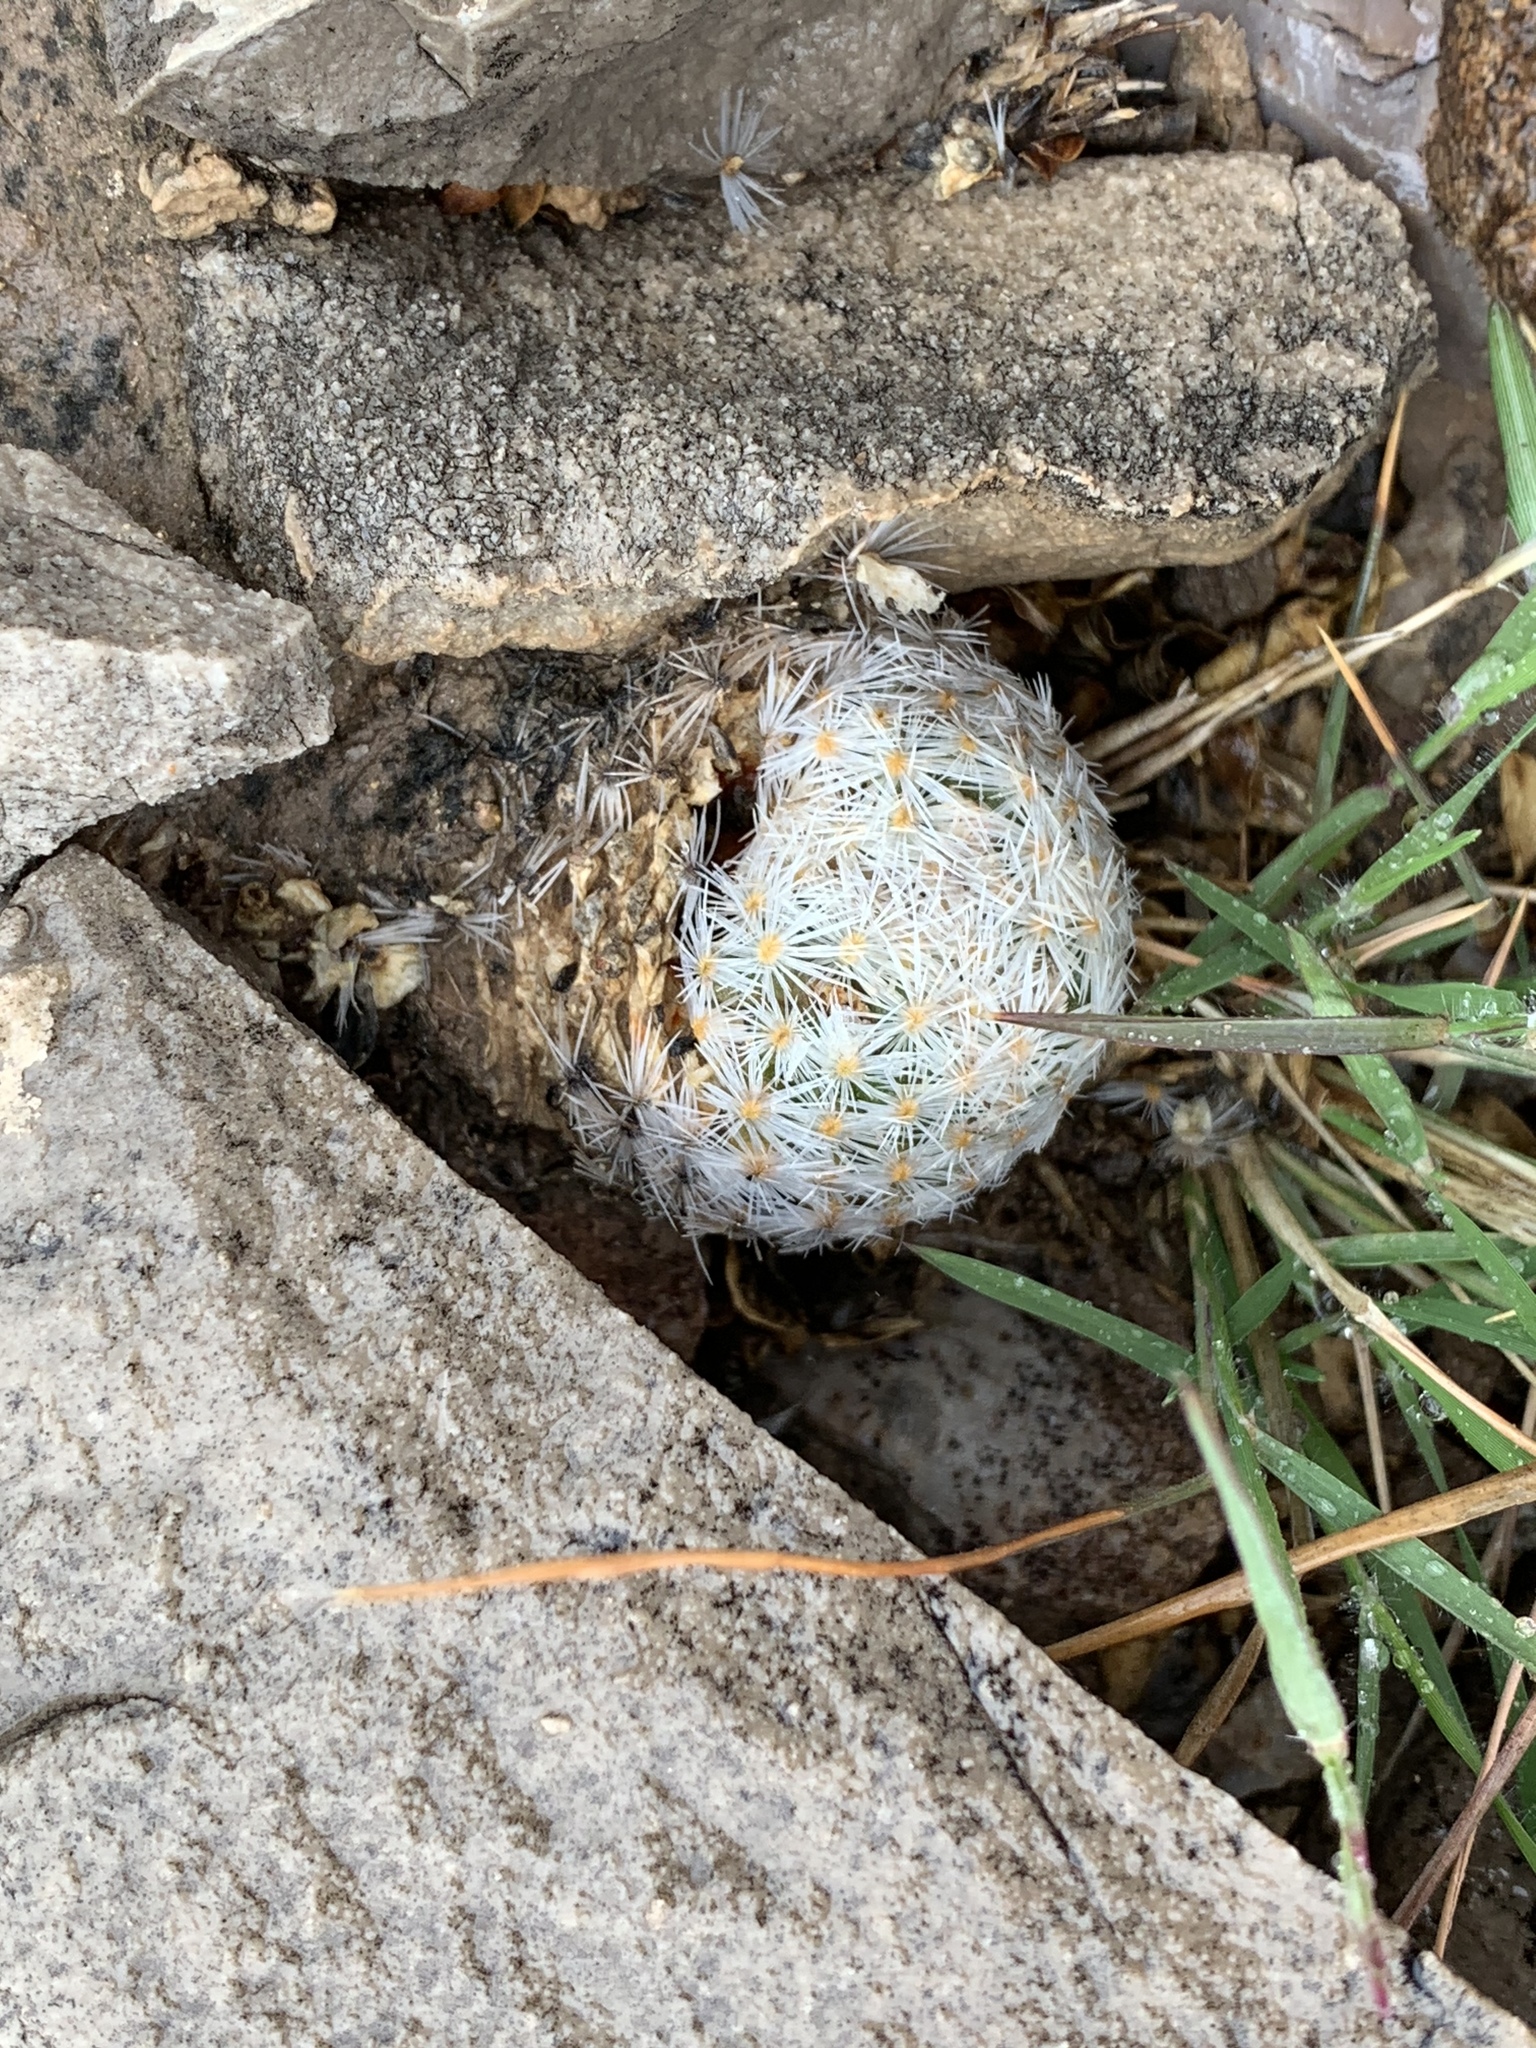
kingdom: Plantae
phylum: Tracheophyta
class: Magnoliopsida
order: Caryophyllales
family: Cactaceae
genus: Mammillaria
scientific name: Mammillaria lasiacantha
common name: Lace-spine nipple cactus
